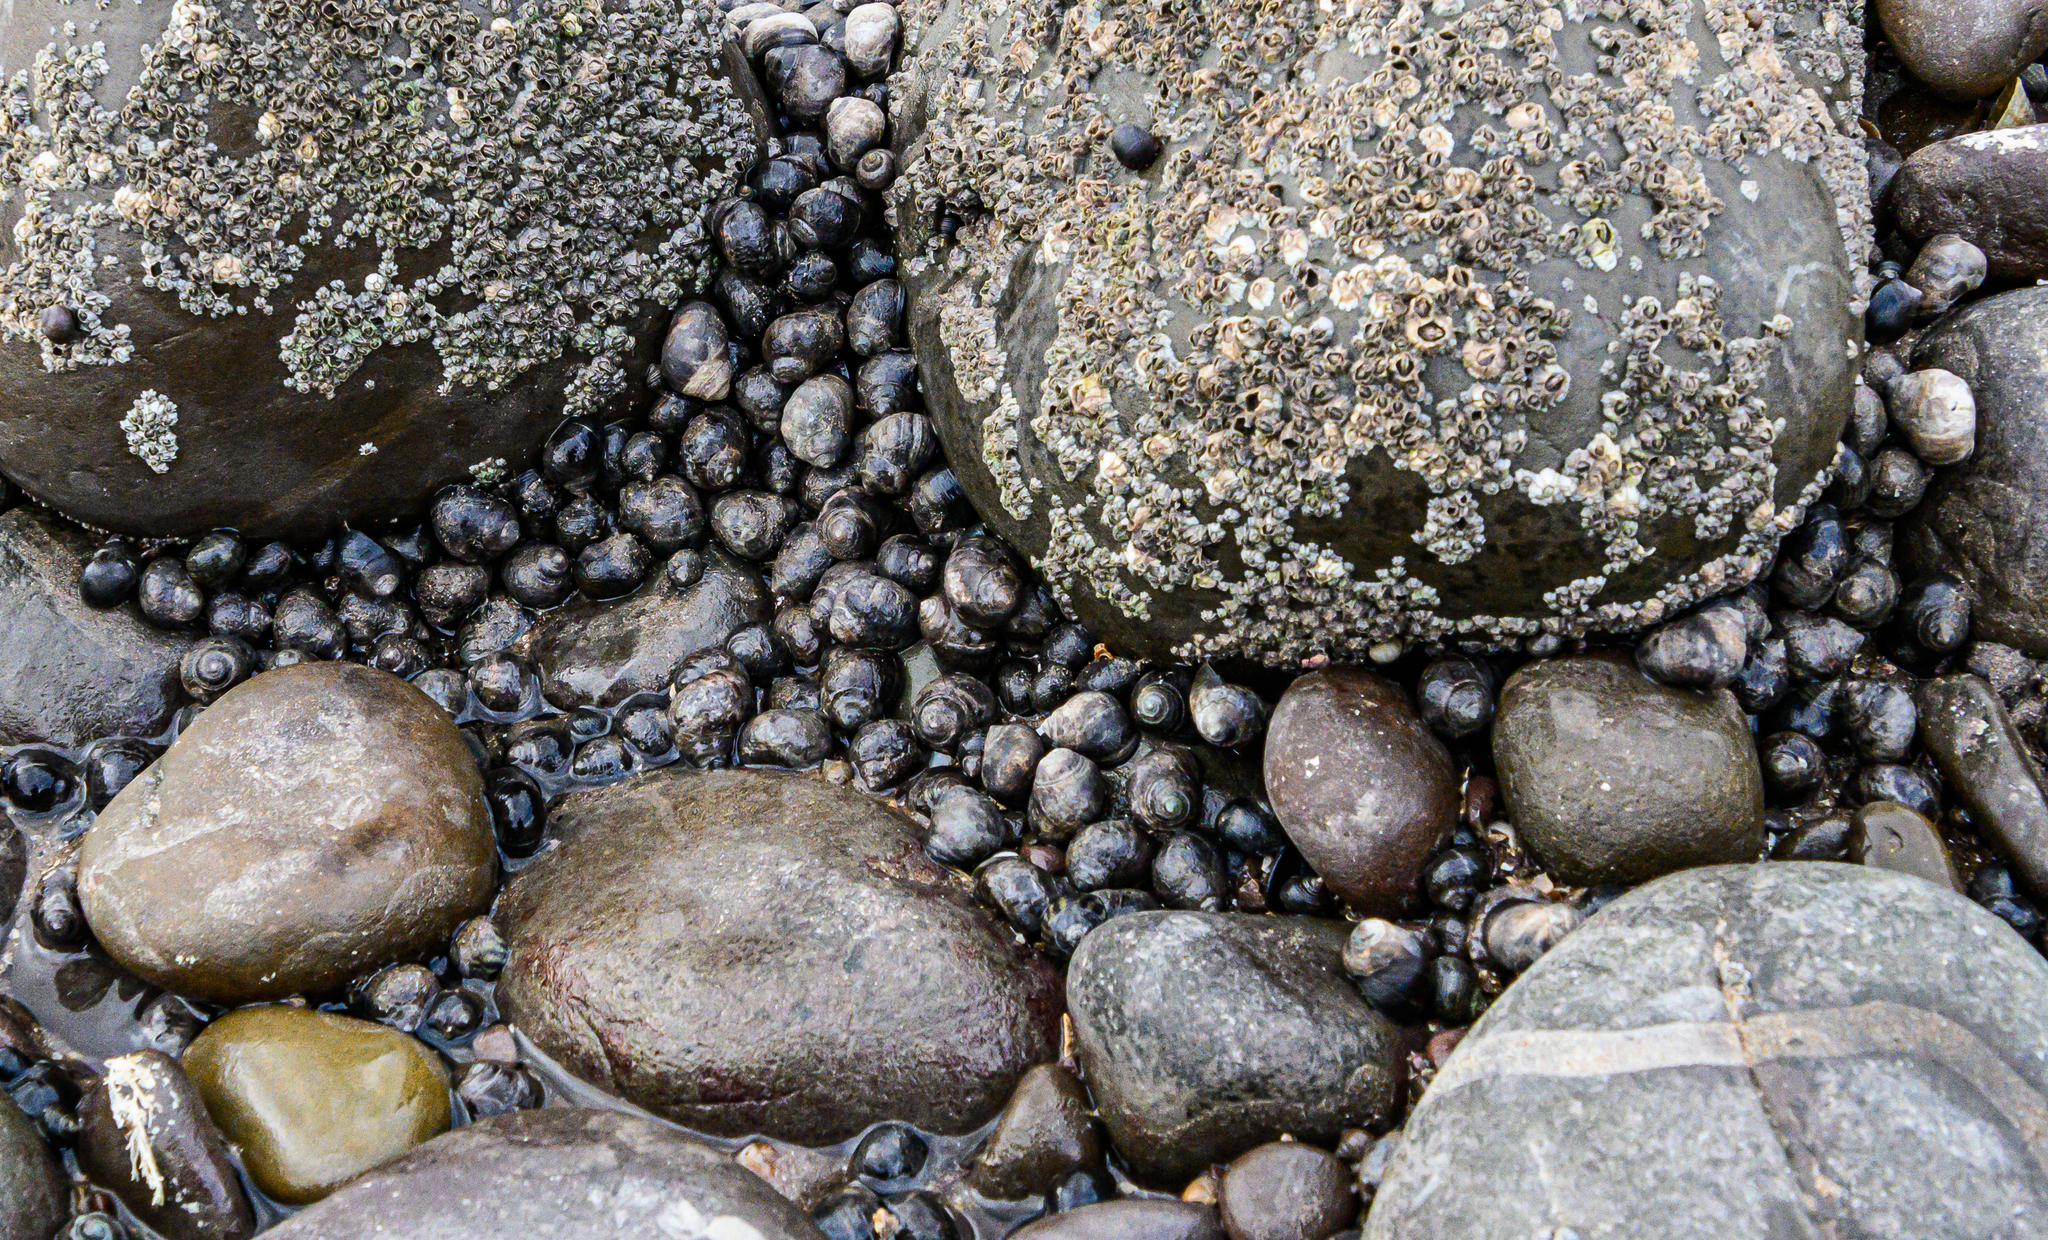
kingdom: Animalia
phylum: Mollusca
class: Gastropoda
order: Littorinimorpha
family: Littorinidae
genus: Littorina
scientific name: Littorina littorea
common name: Common periwinkle
